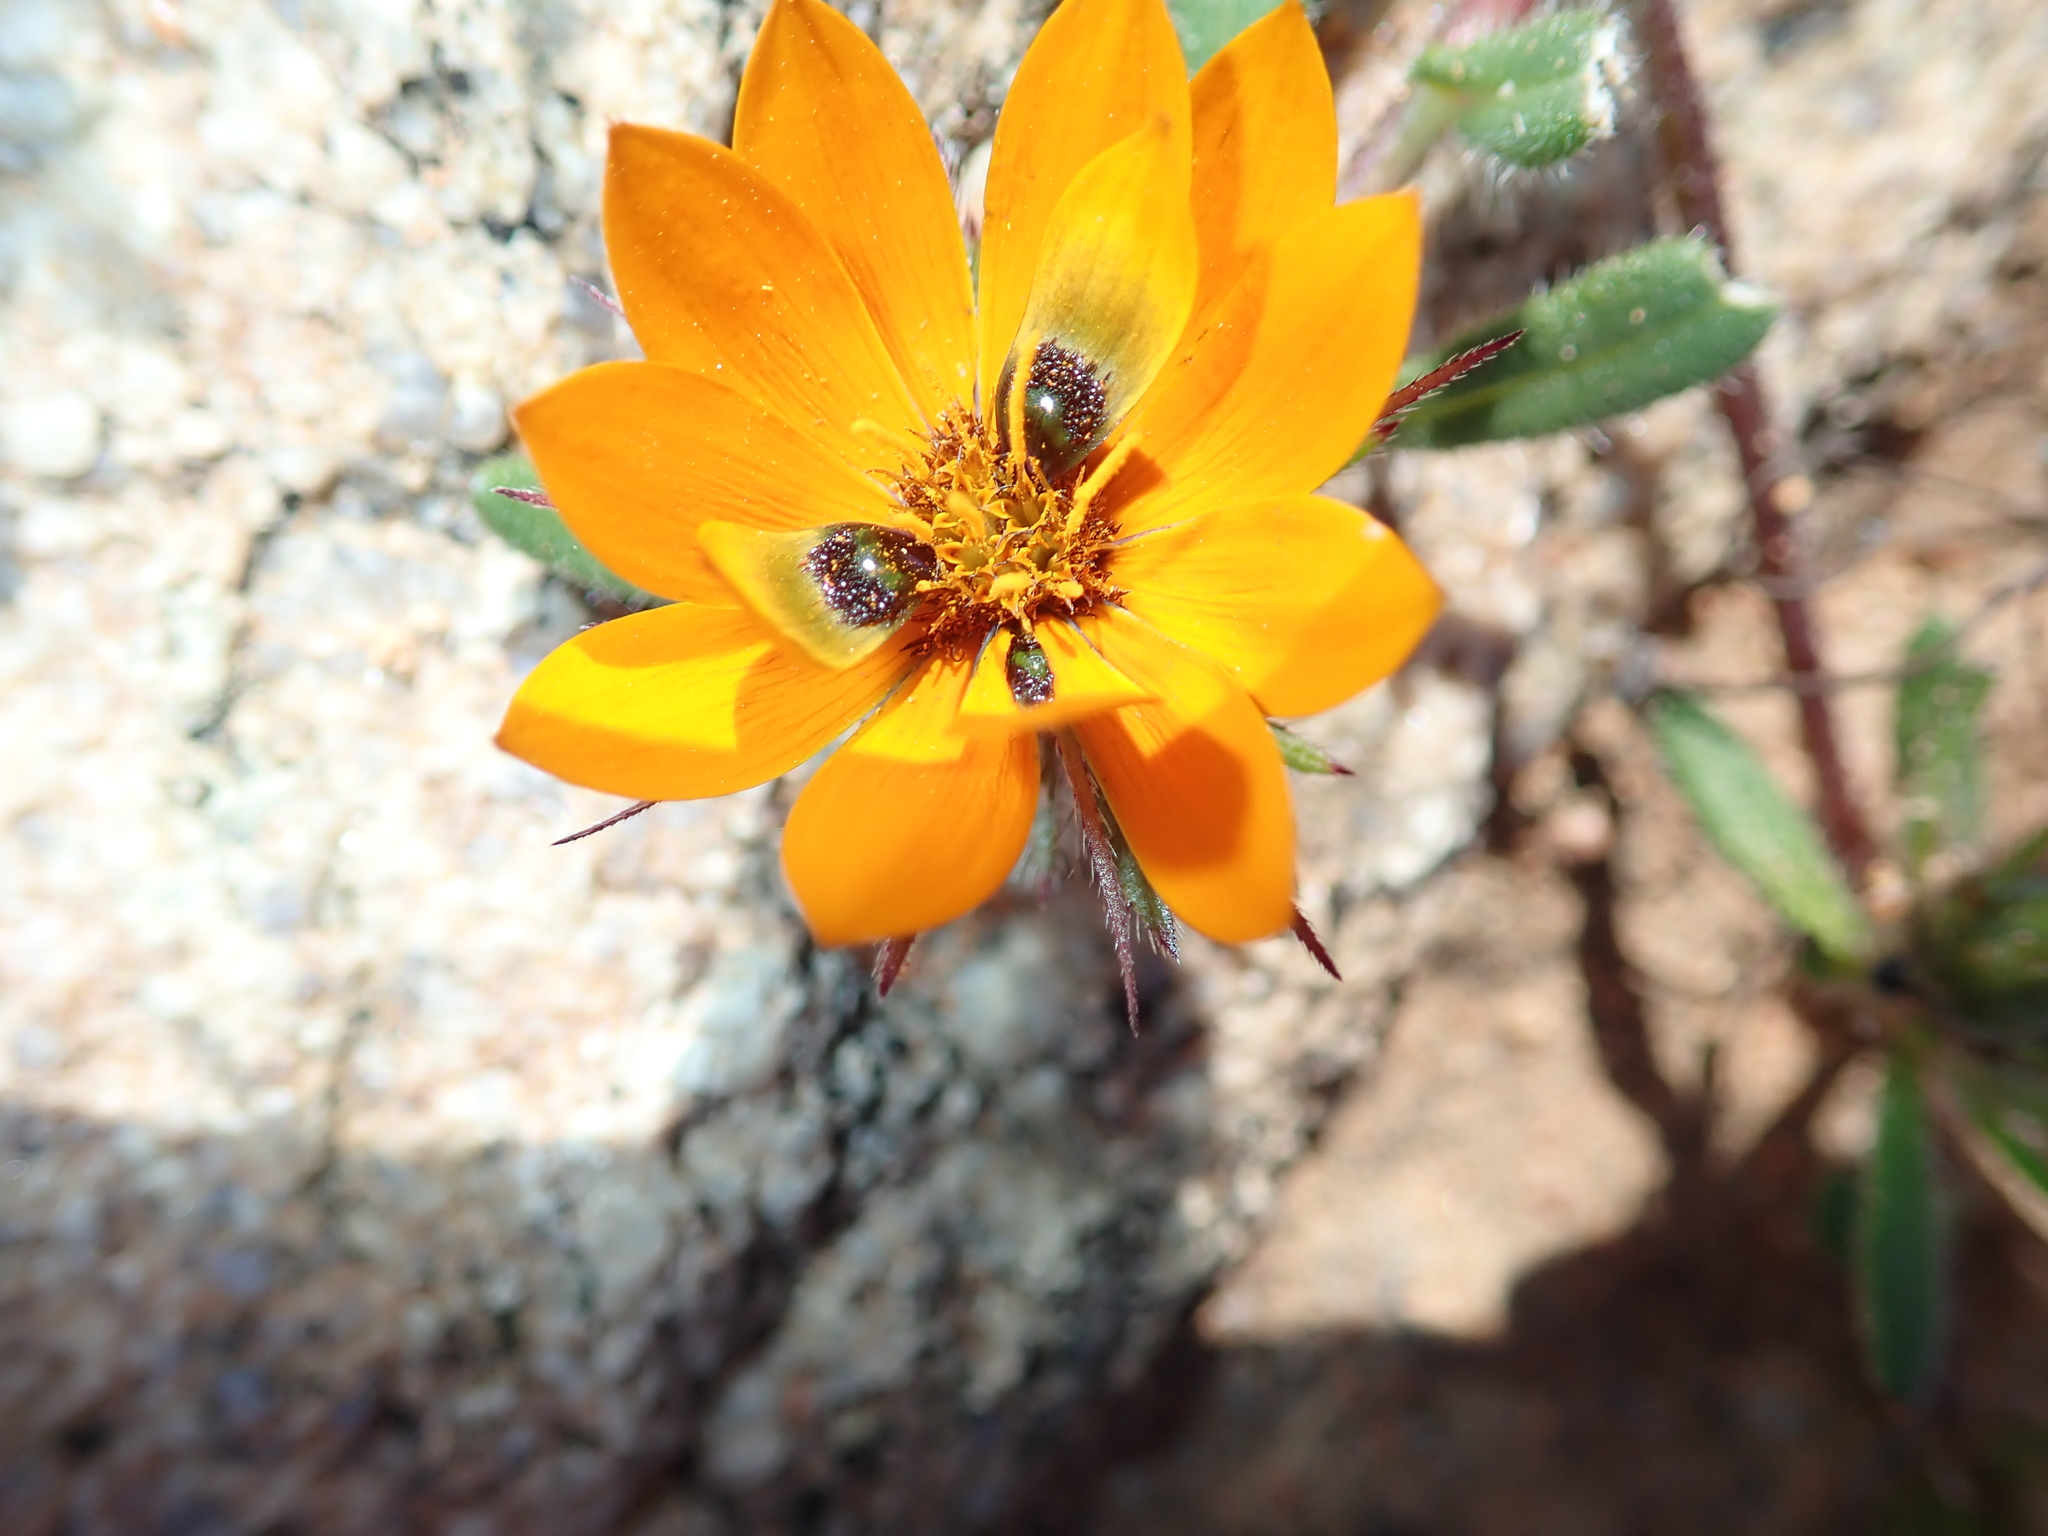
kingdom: Plantae
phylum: Tracheophyta
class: Magnoliopsida
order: Asterales
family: Asteraceae
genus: Gorteria
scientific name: Gorteria diffusa
